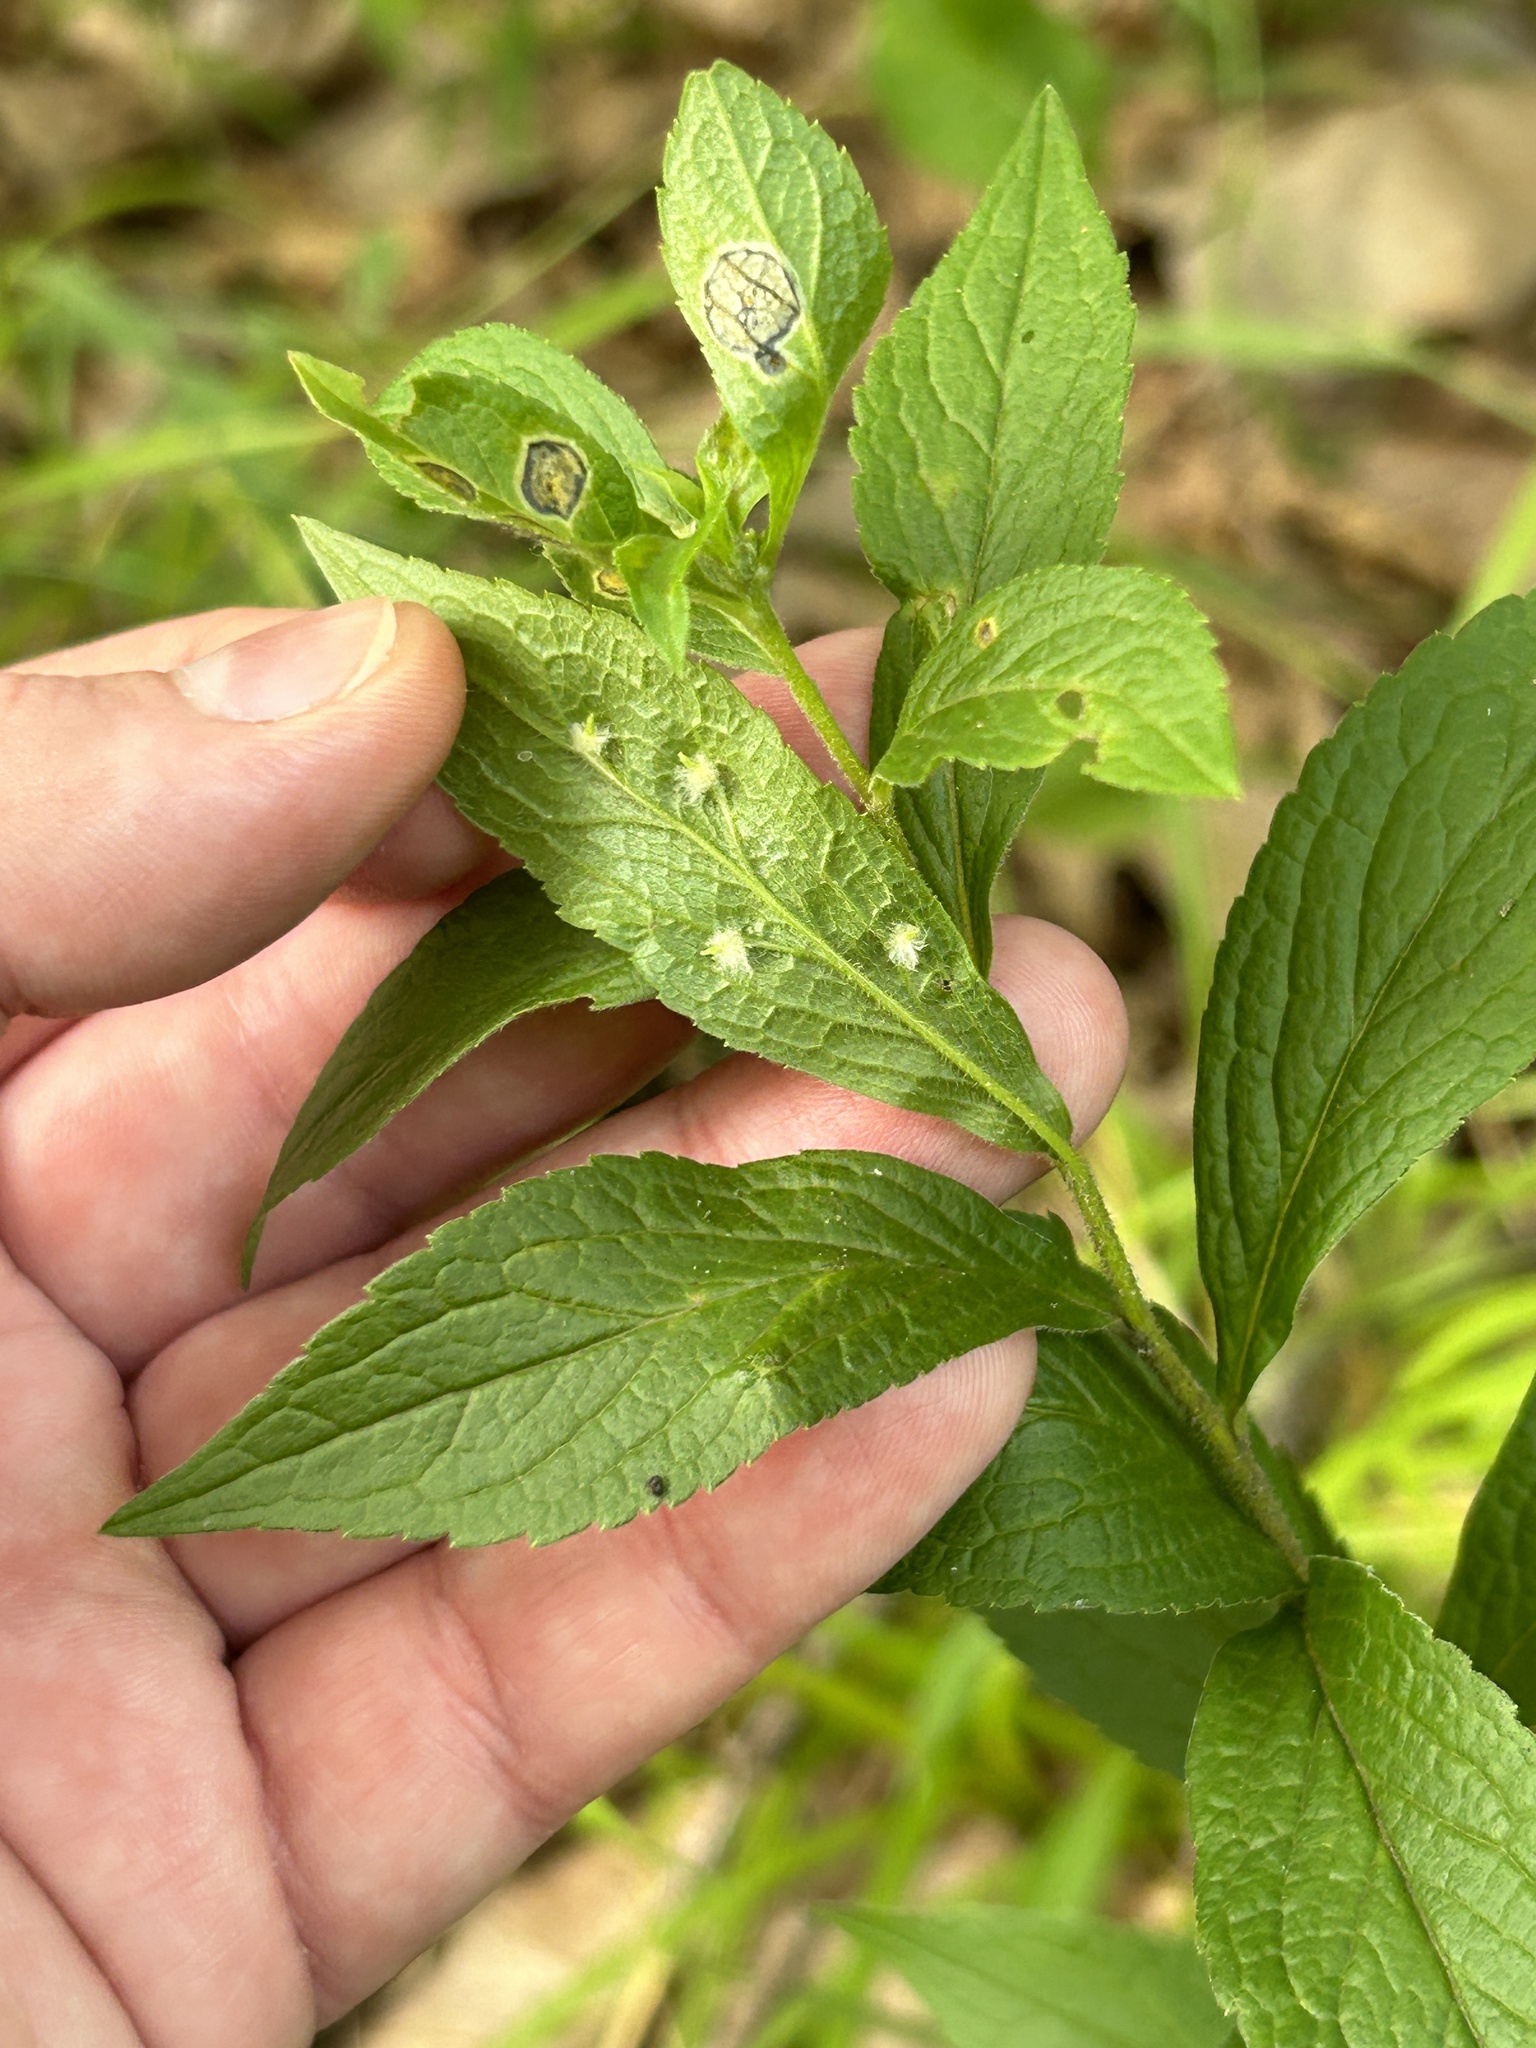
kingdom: Animalia
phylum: Arthropoda
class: Insecta
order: Diptera
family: Cecidomyiidae
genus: Rhopalomyia
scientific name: Rhopalomyia clarkei
